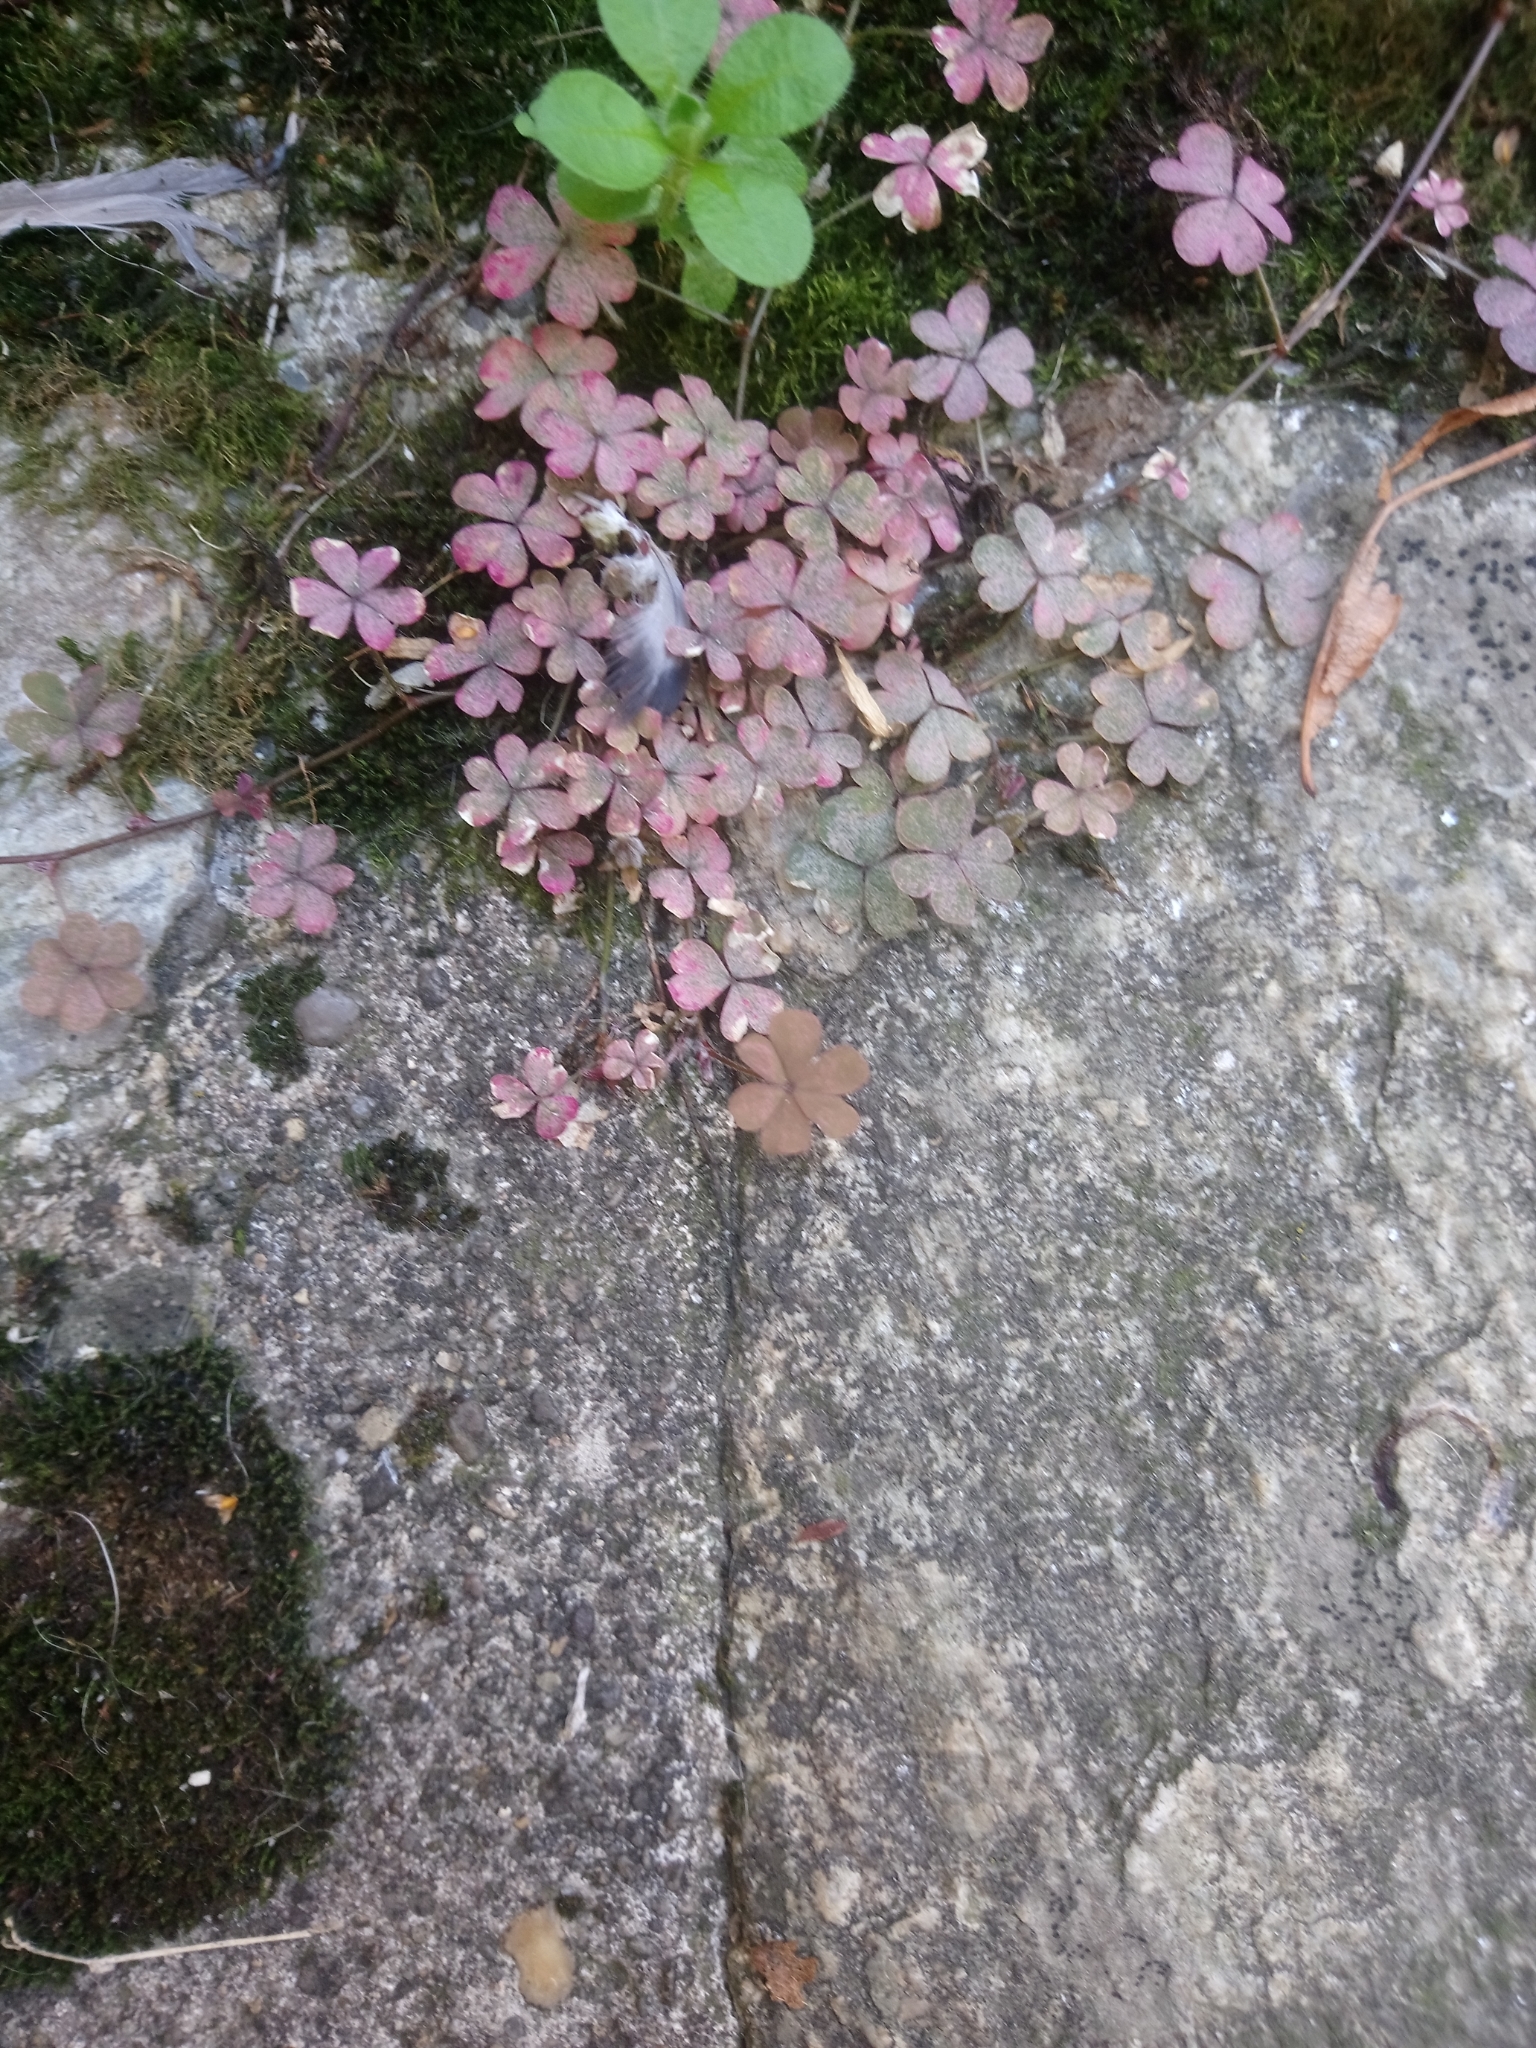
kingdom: Plantae
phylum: Tracheophyta
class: Magnoliopsida
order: Oxalidales
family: Oxalidaceae
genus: Oxalis
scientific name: Oxalis corniculata
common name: Procumbent yellow-sorrel
